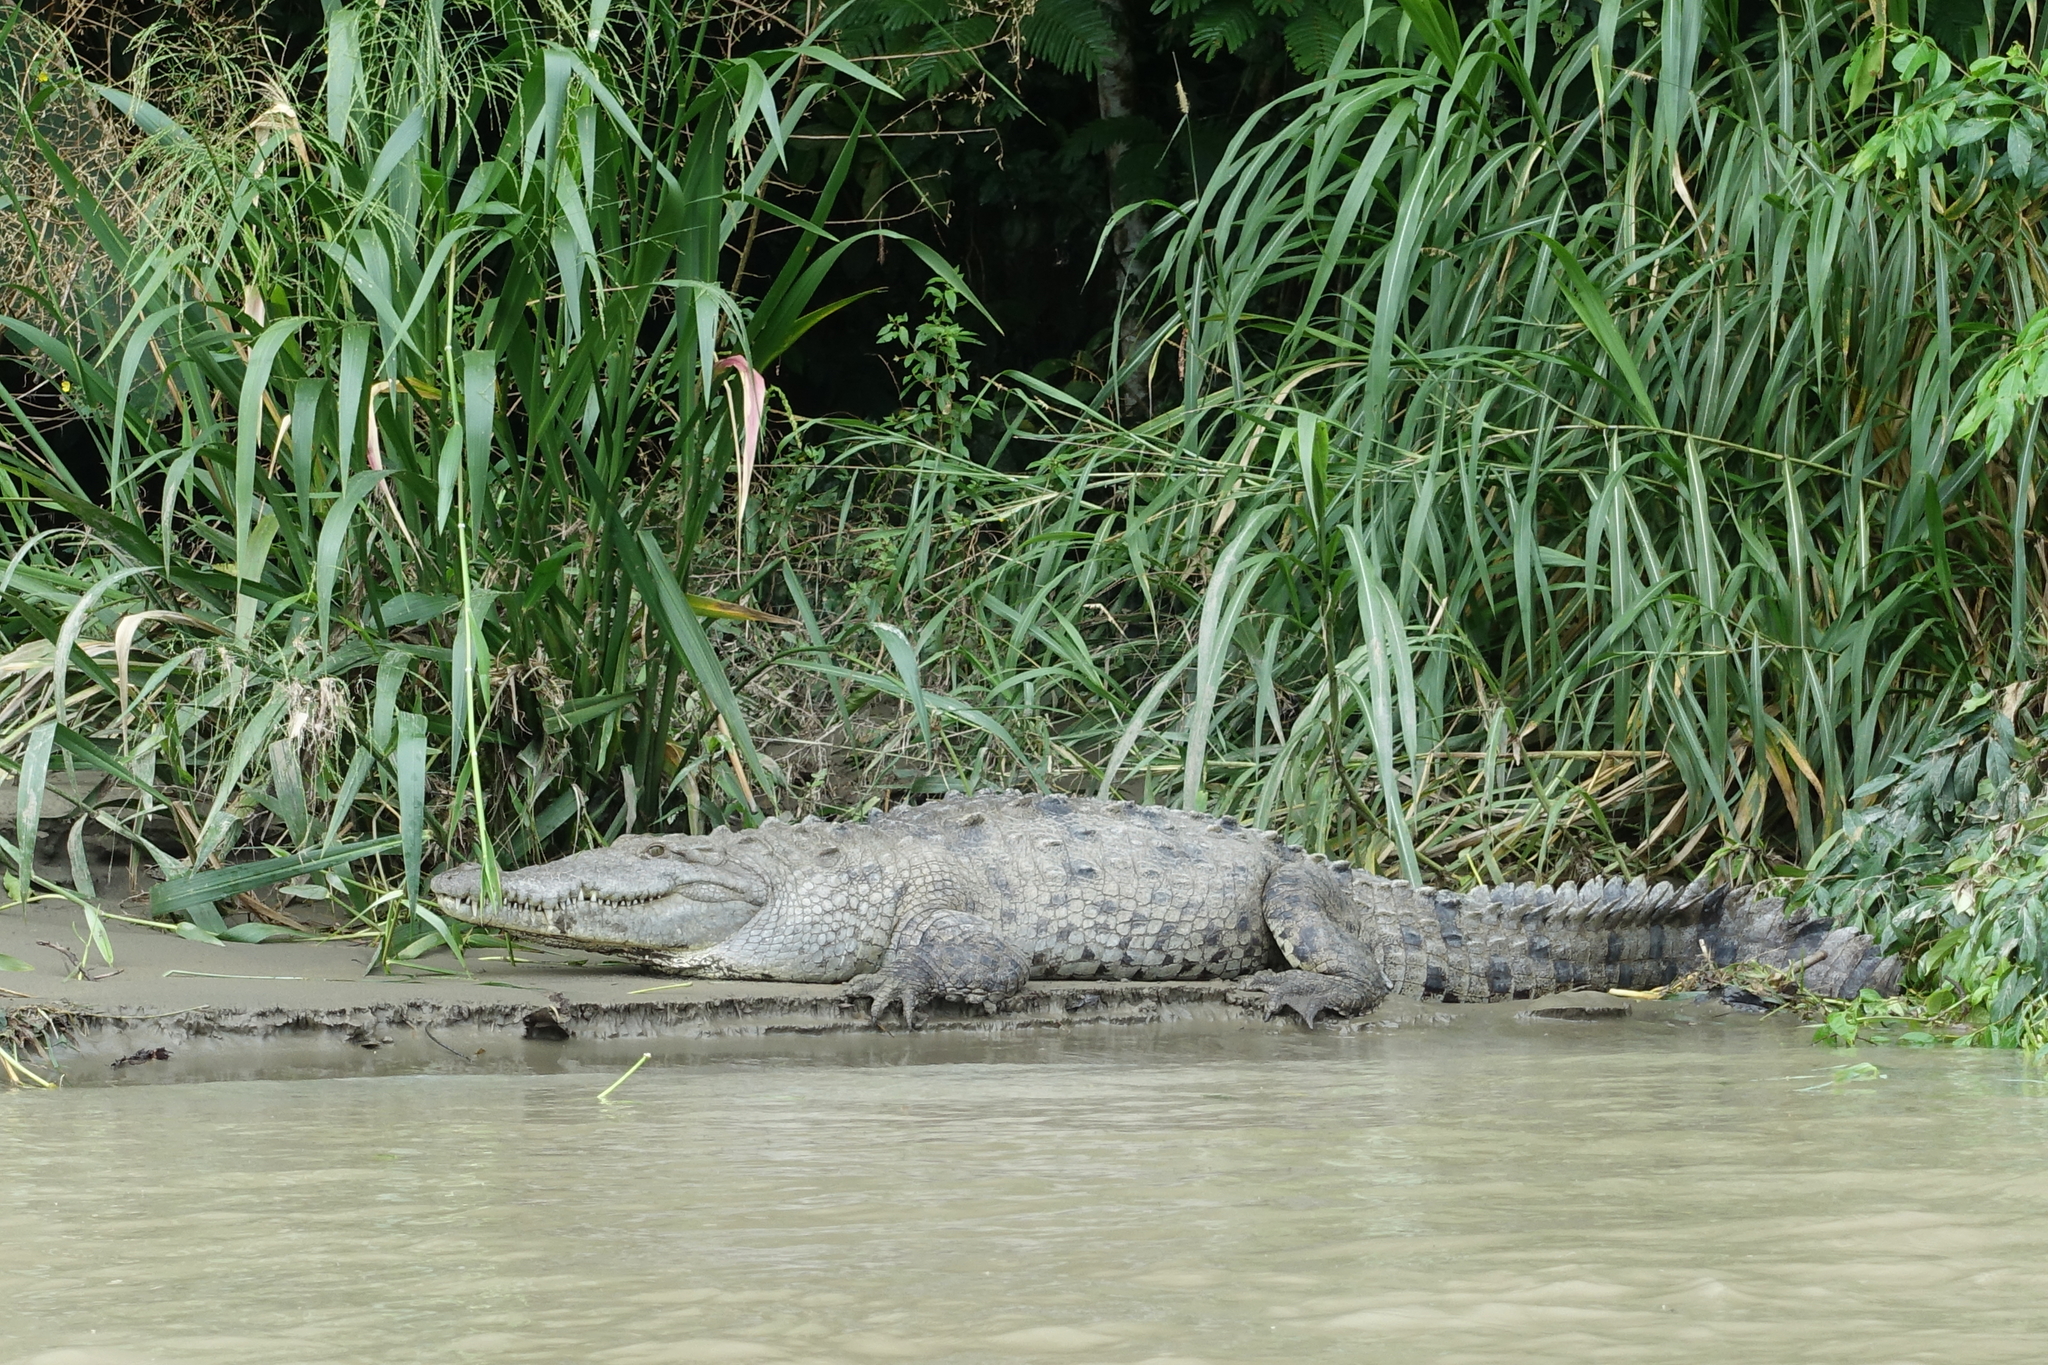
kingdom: Animalia
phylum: Chordata
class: Crocodylia
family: Crocodylidae
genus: Crocodylus
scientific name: Crocodylus acutus
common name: American crocodile
